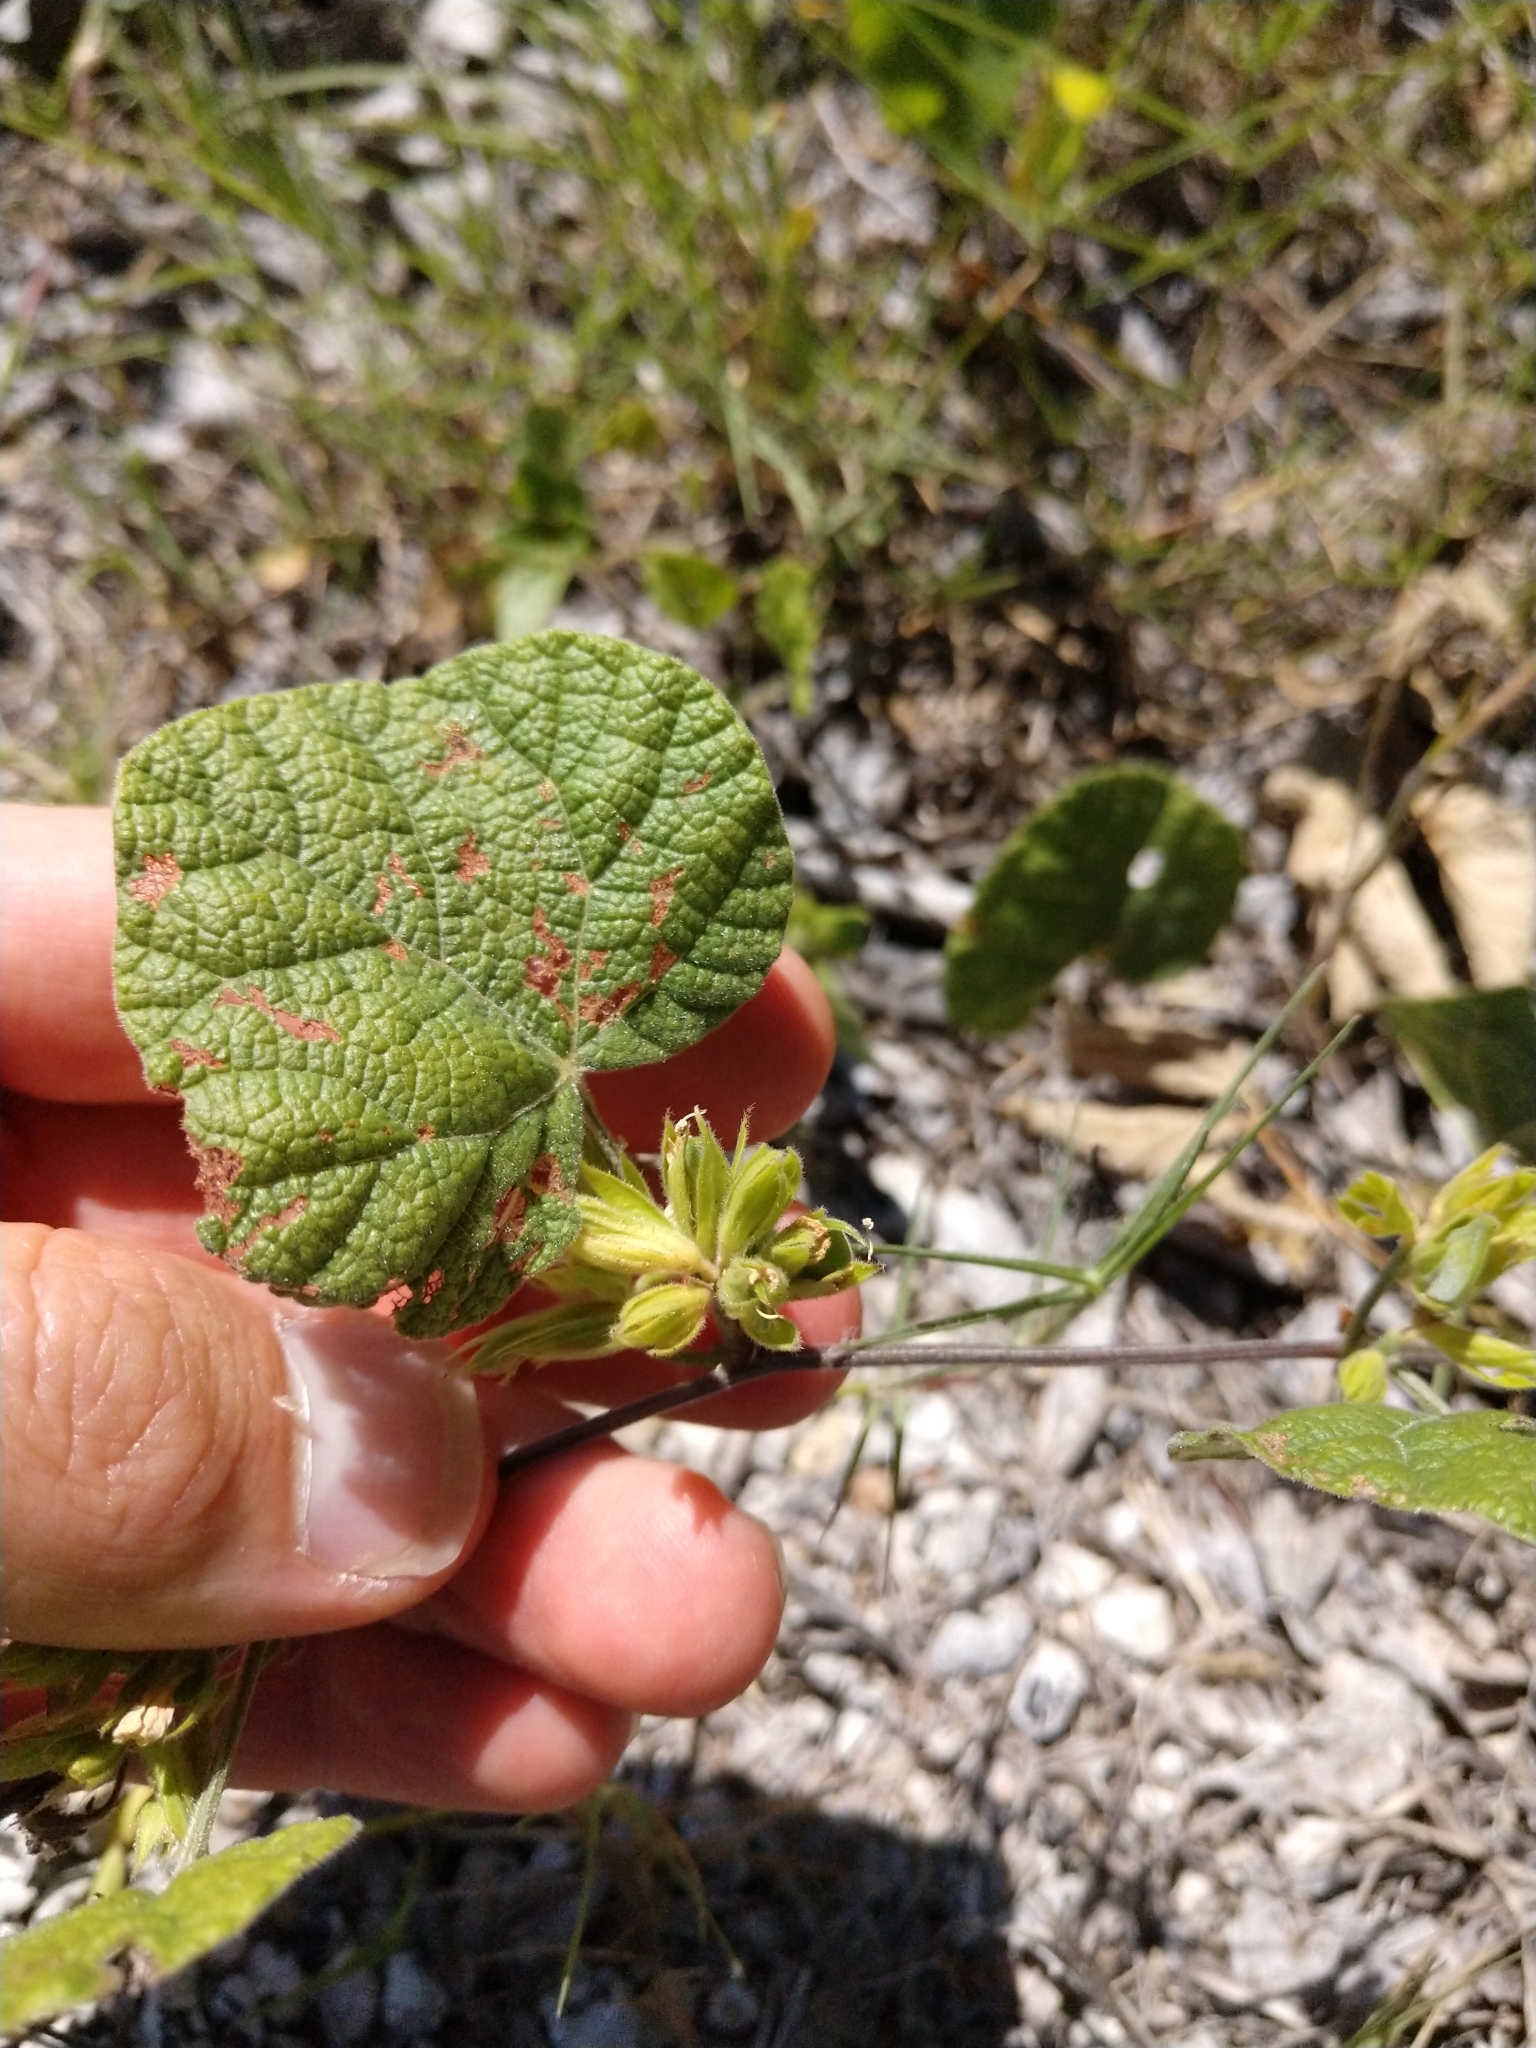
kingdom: Plantae
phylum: Tracheophyta
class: Magnoliopsida
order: Fabales
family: Fabaceae
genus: Rhynchosia
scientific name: Rhynchosia americana
